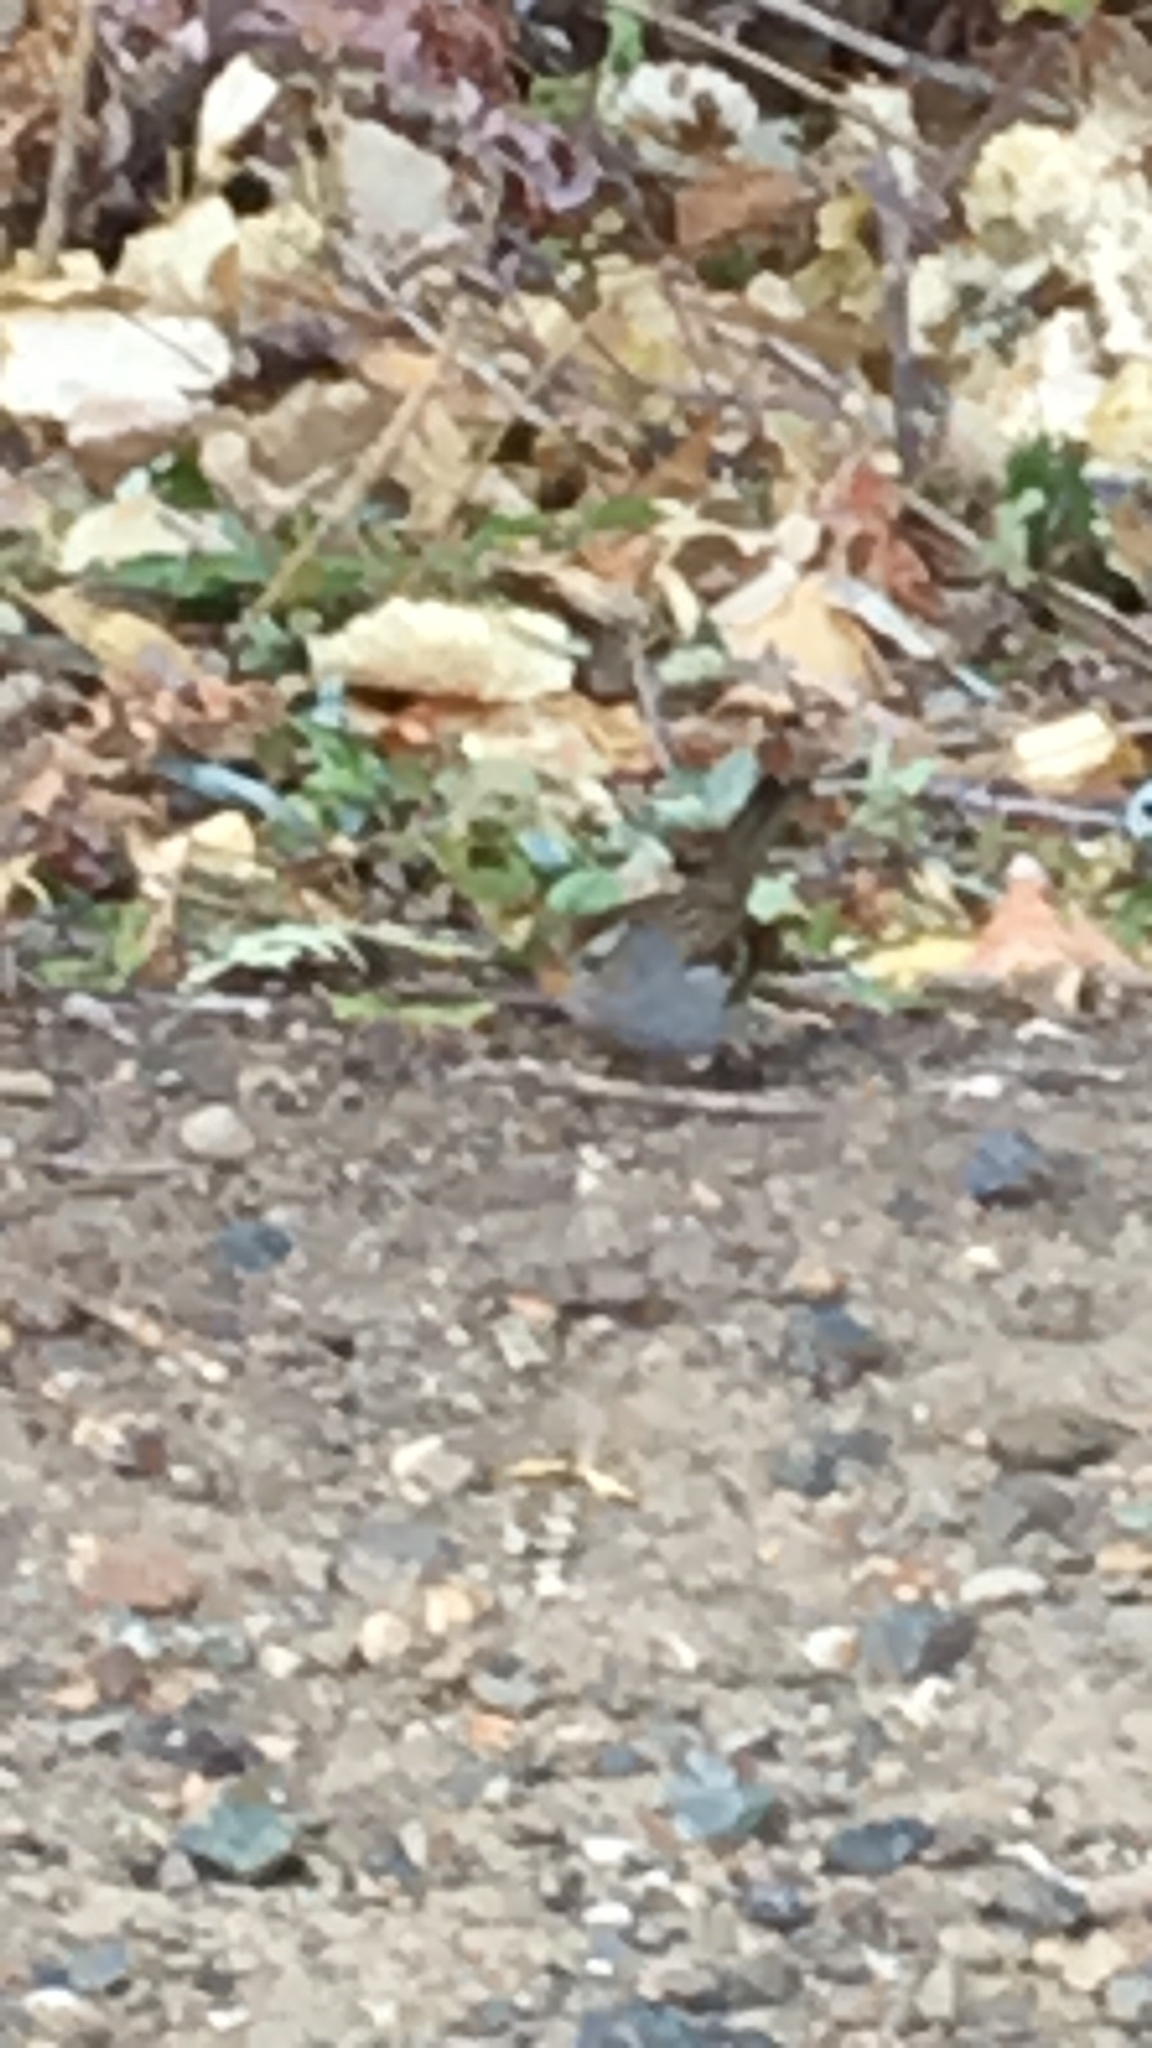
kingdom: Animalia
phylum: Chordata
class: Aves
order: Passeriformes
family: Passerellidae
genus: Zonotrichia
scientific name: Zonotrichia leucophrys
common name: White-crowned sparrow
